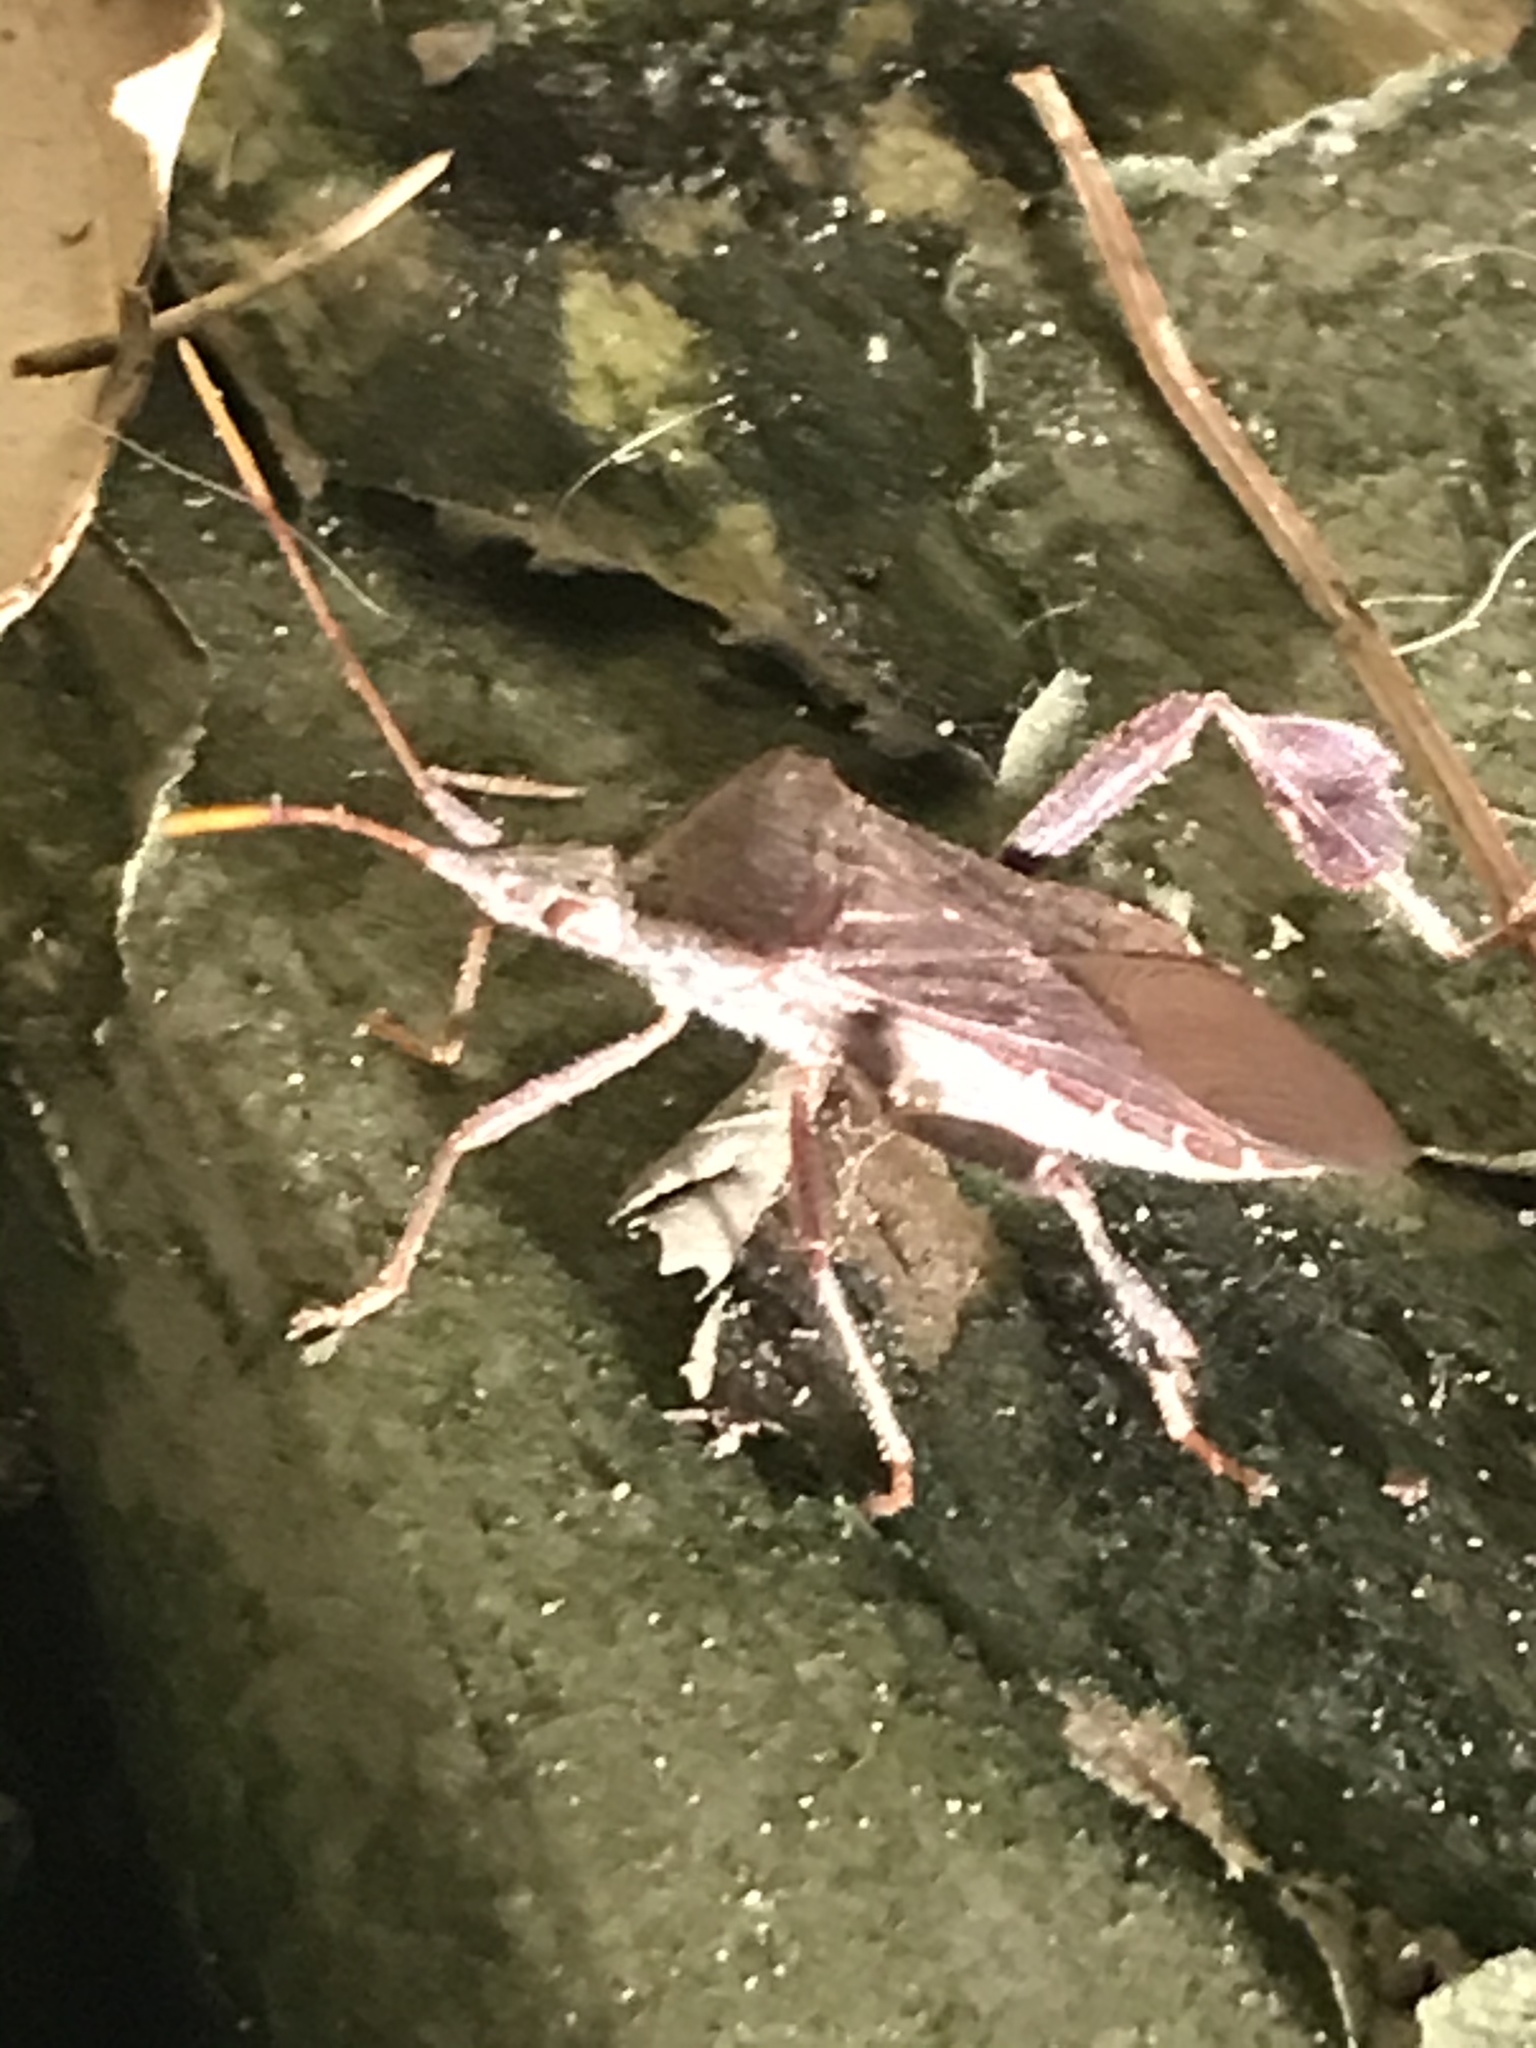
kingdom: Animalia
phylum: Arthropoda
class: Insecta
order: Hemiptera
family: Coreidae
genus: Leptoglossus
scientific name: Leptoglossus oppositus
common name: Northern leaf-footed bug
